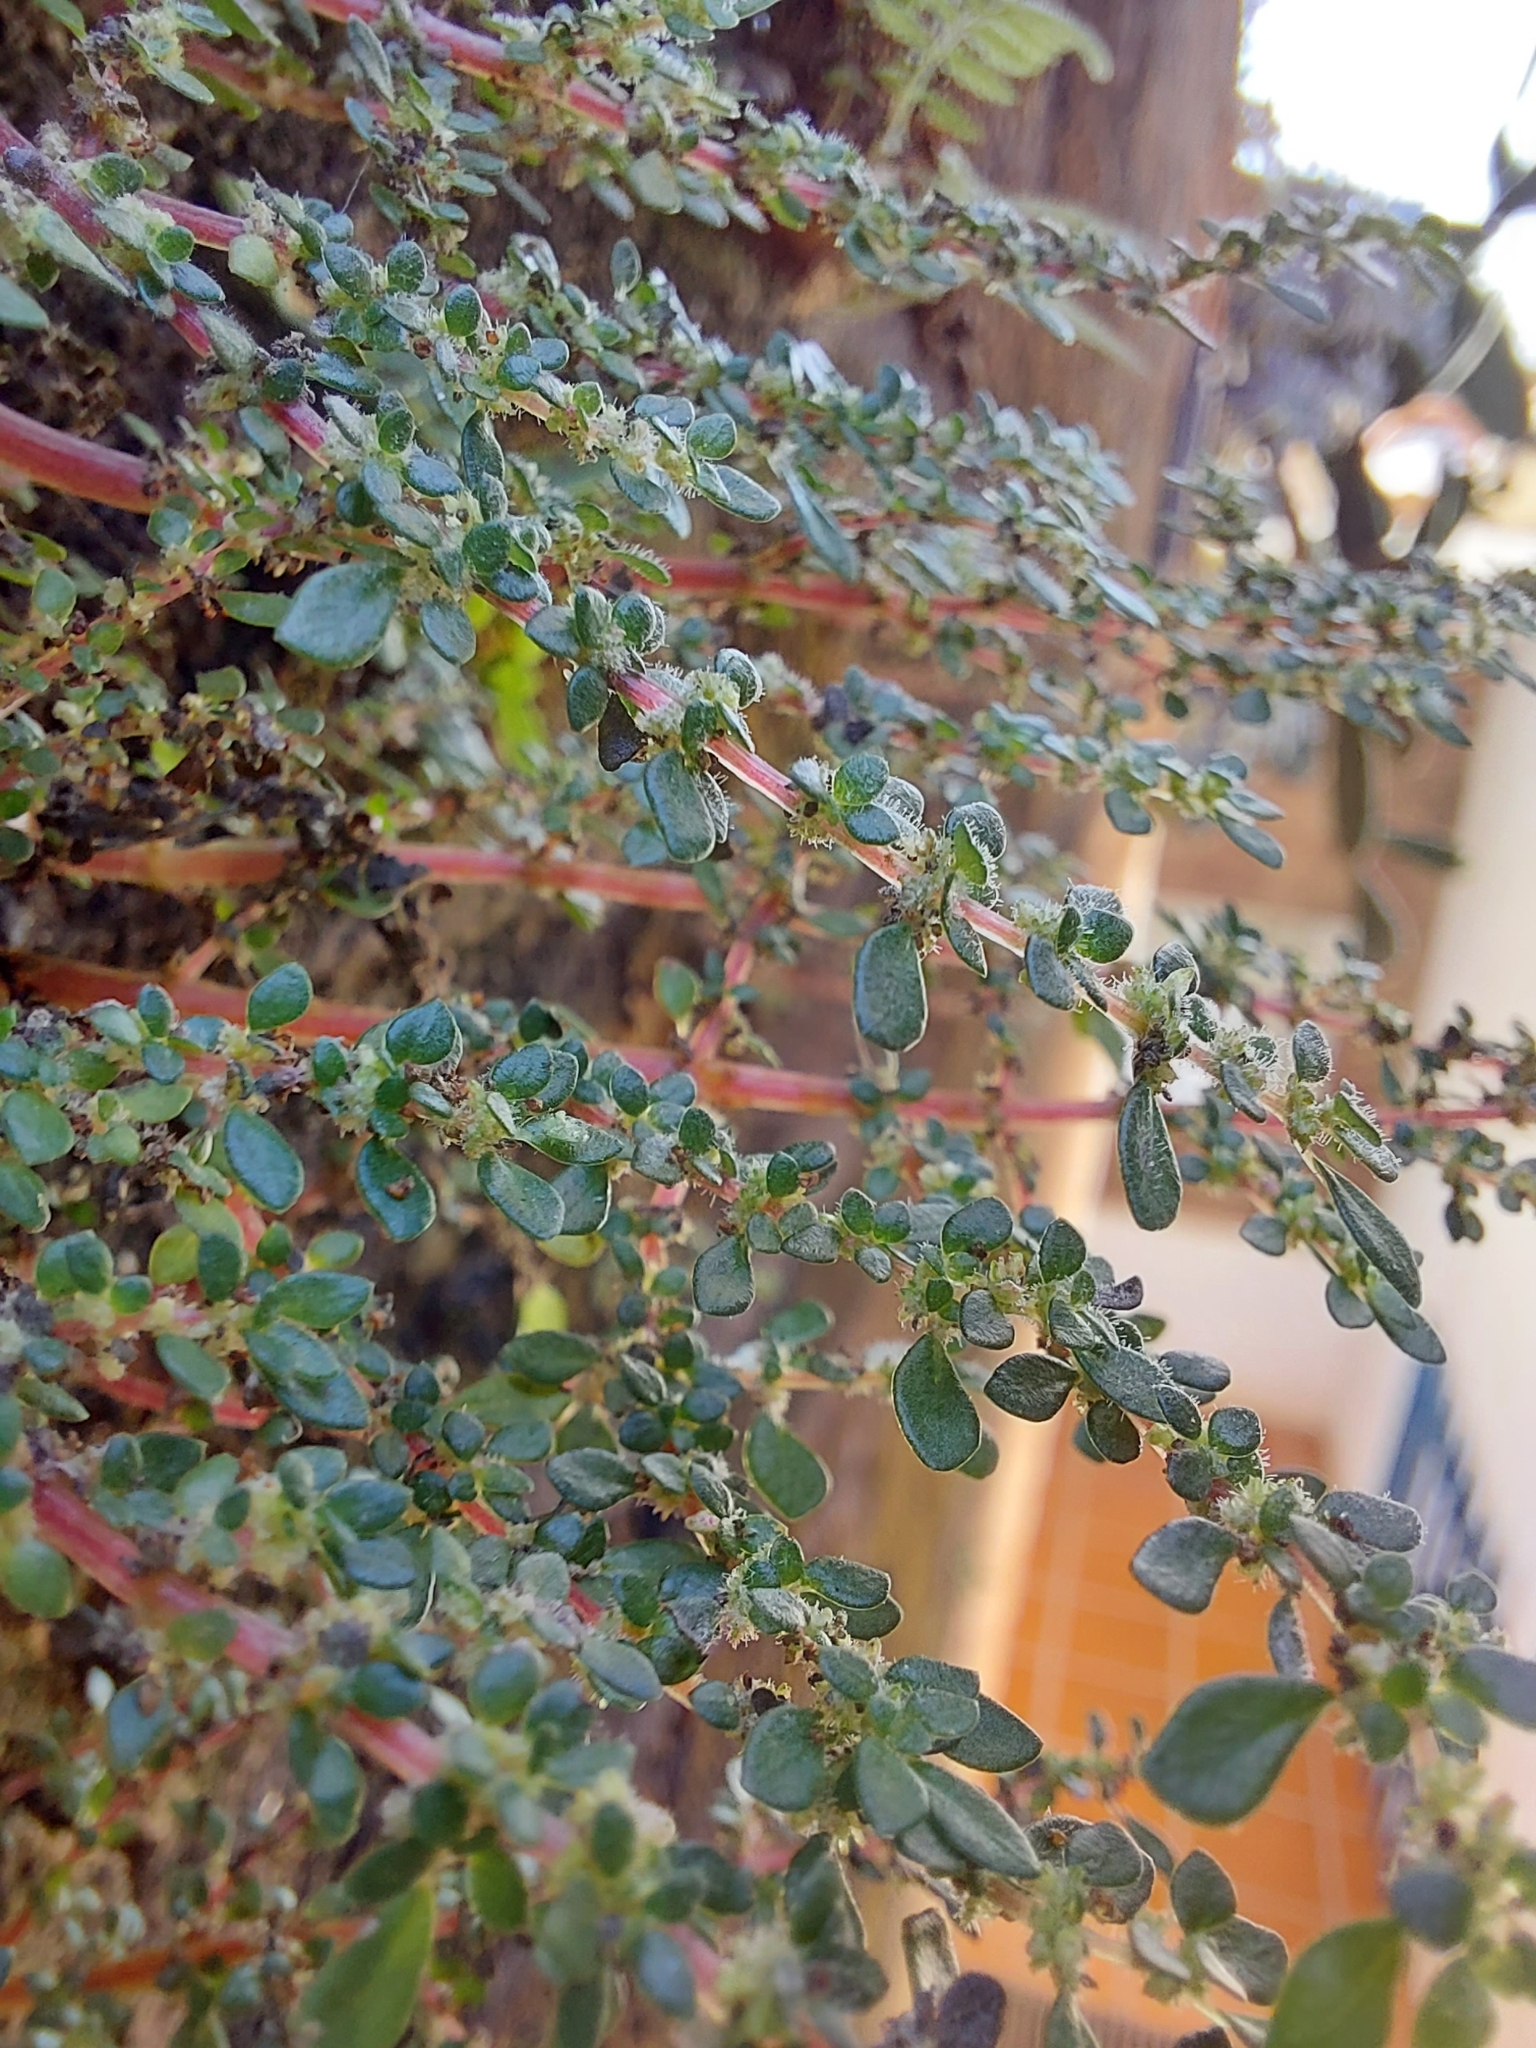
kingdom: Plantae
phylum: Tracheophyta
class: Magnoliopsida
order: Rosales
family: Urticaceae
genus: Pilea
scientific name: Pilea microphylla
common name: Artillery-plant
